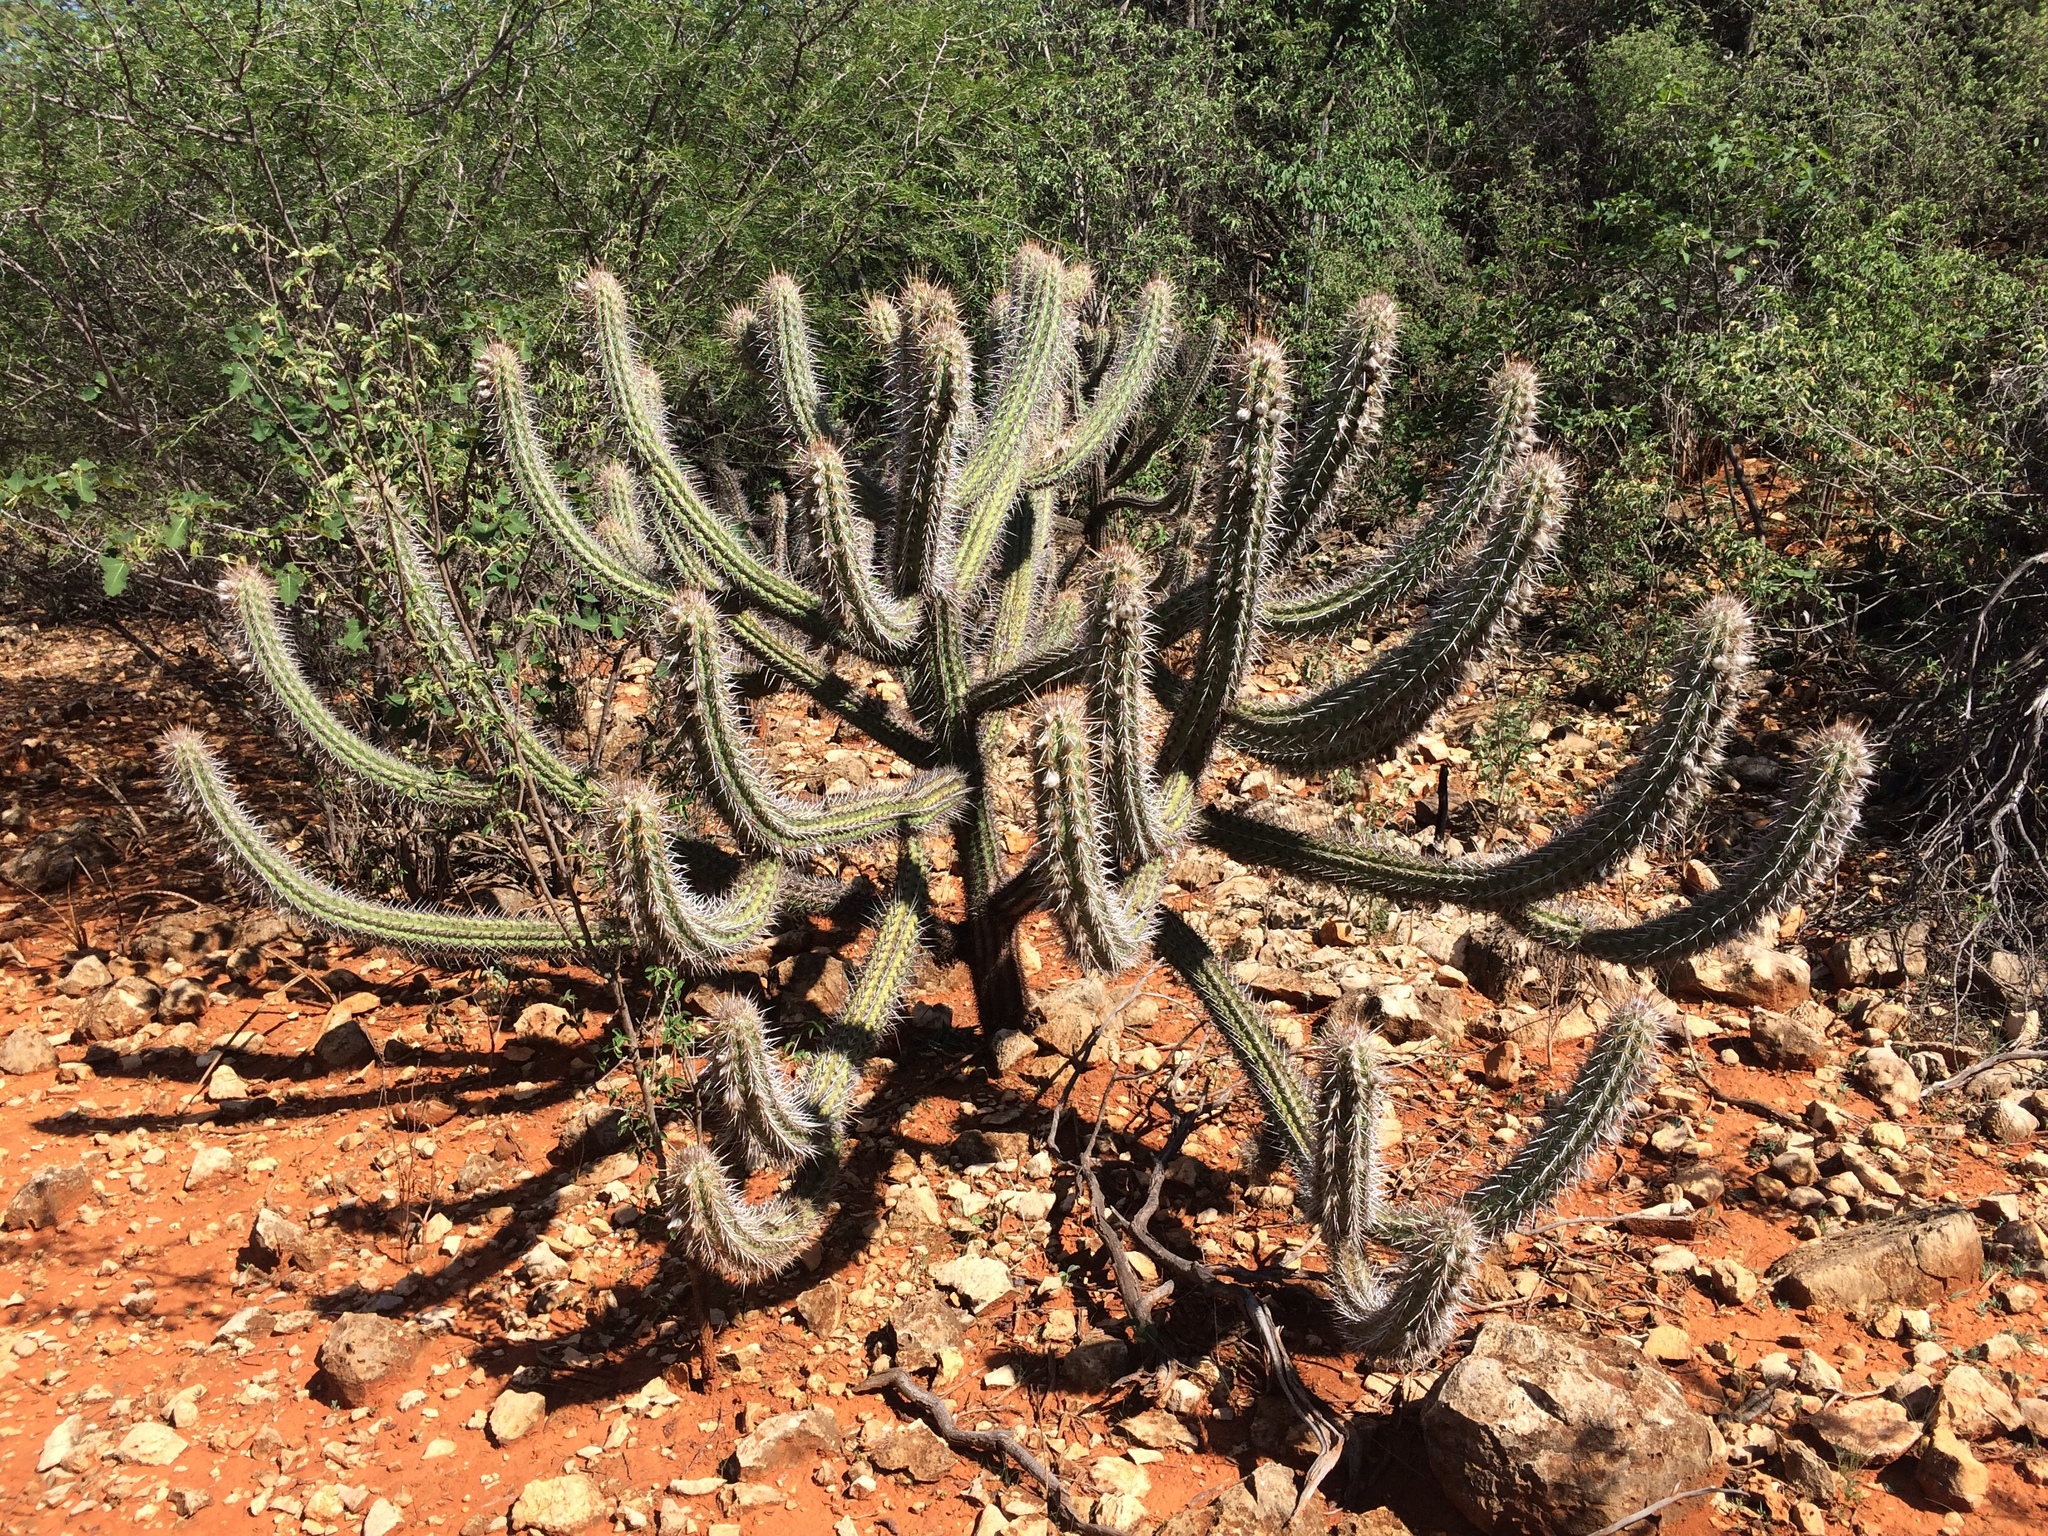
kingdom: Plantae
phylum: Tracheophyta
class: Magnoliopsida
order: Caryophyllales
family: Cactaceae
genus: Xiquexique
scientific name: Xiquexique gounellei
